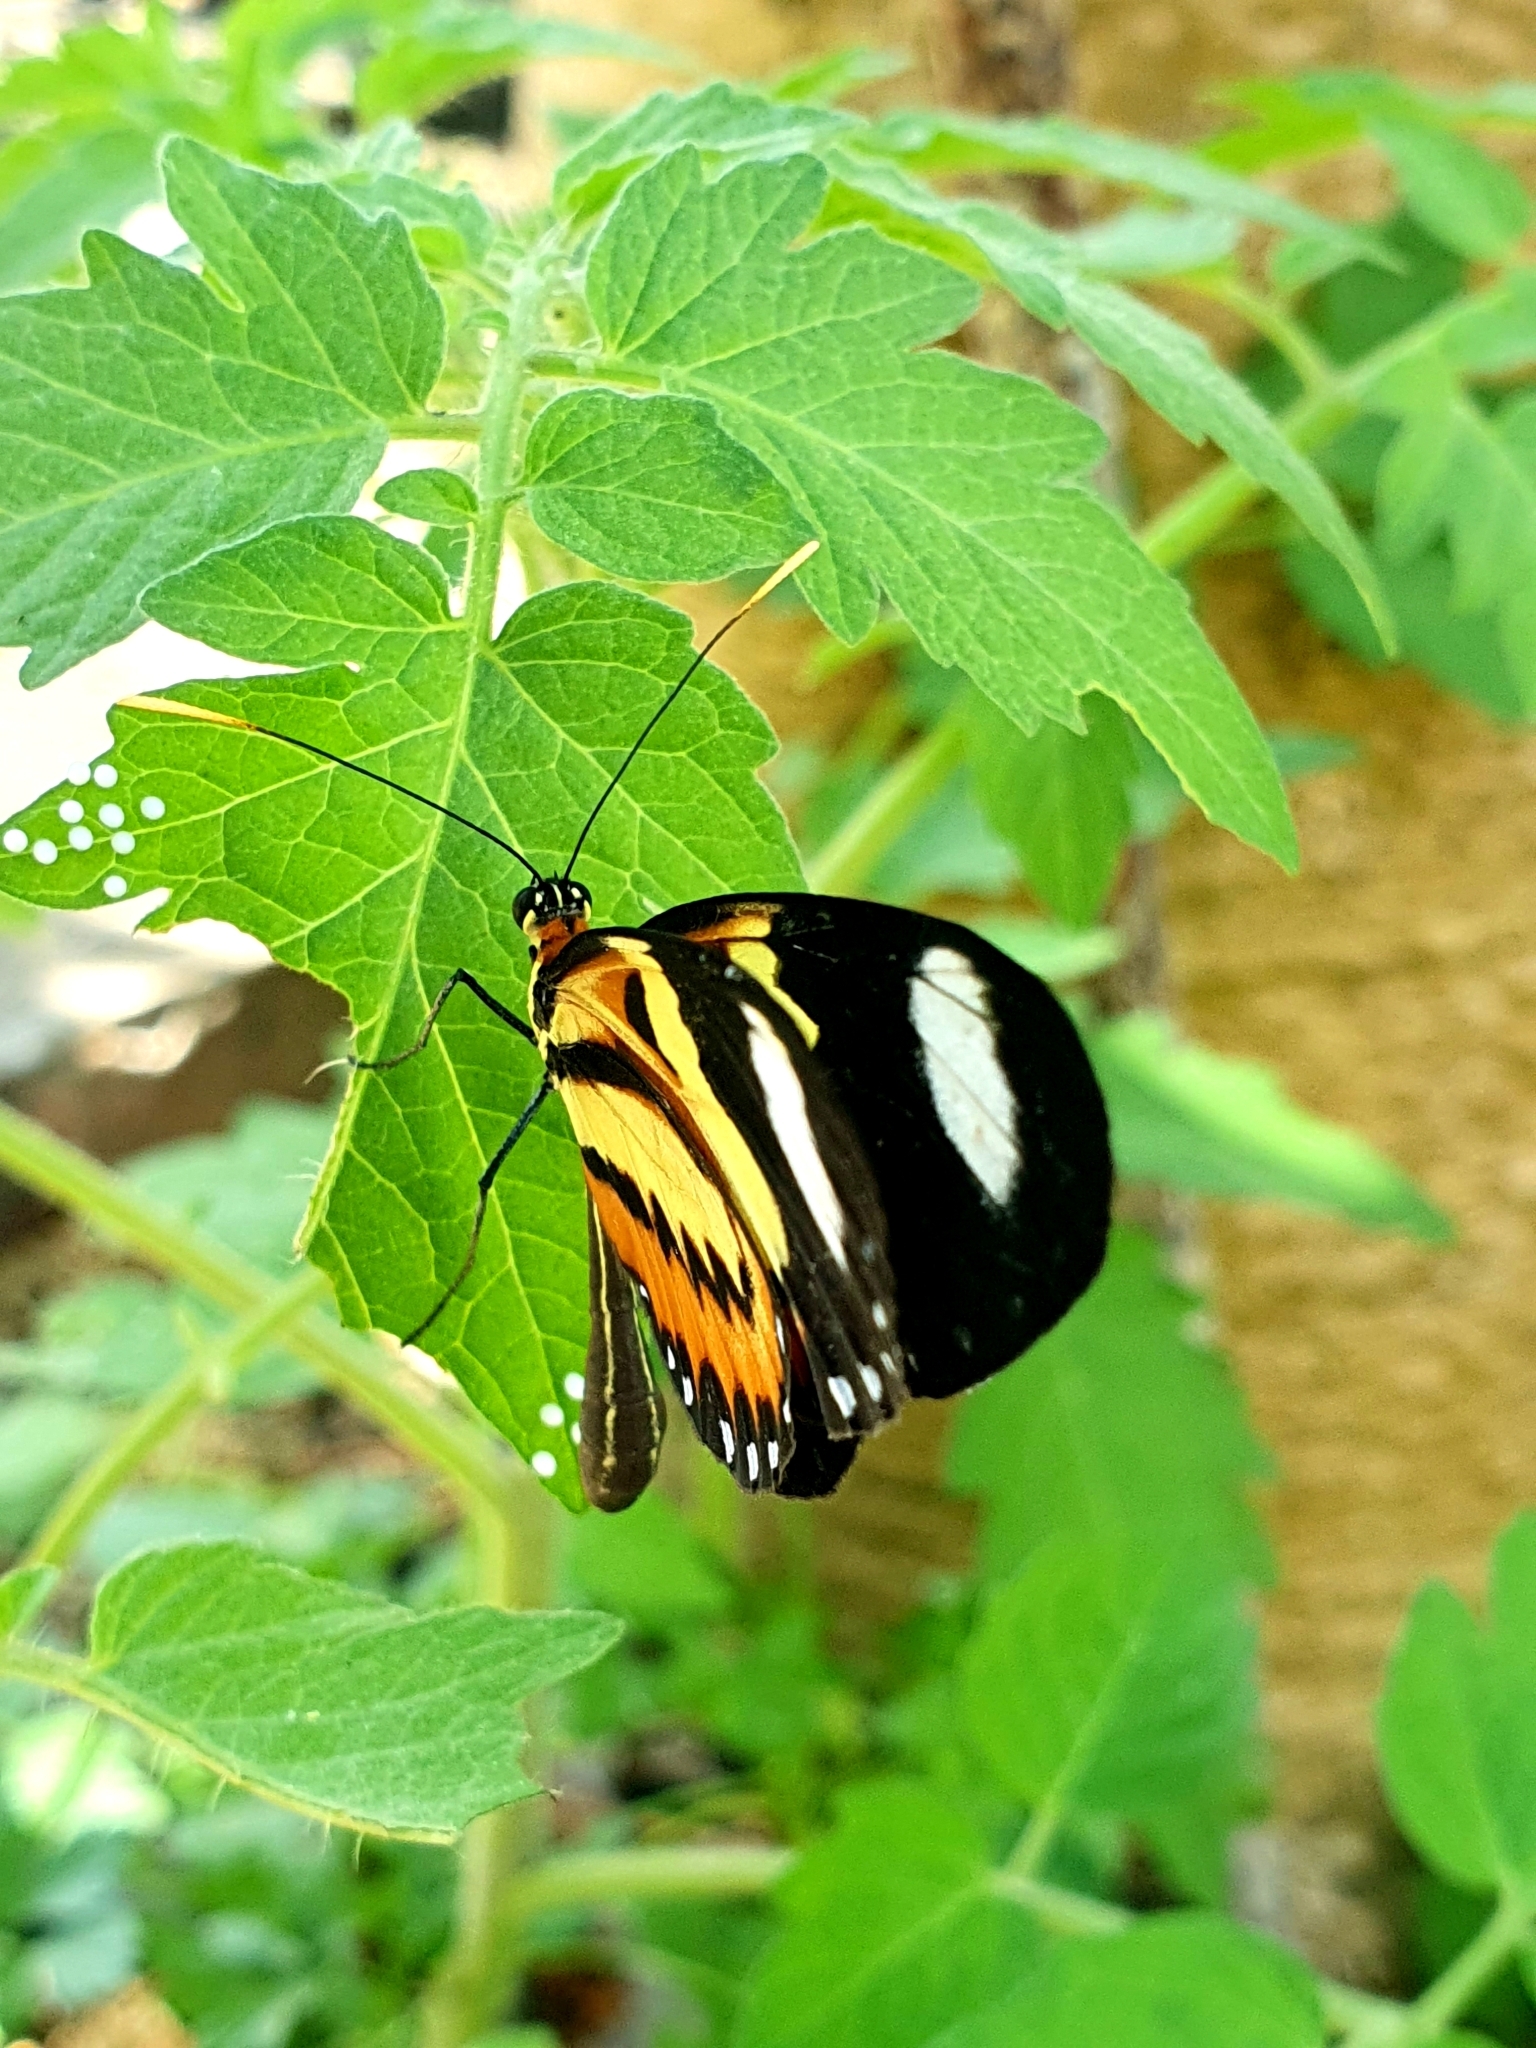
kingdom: Animalia
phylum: Arthropoda
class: Insecta
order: Lepidoptera
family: Nymphalidae
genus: Mechanitis
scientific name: Mechanitis lysimnia
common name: Lysimnia tigerwing
